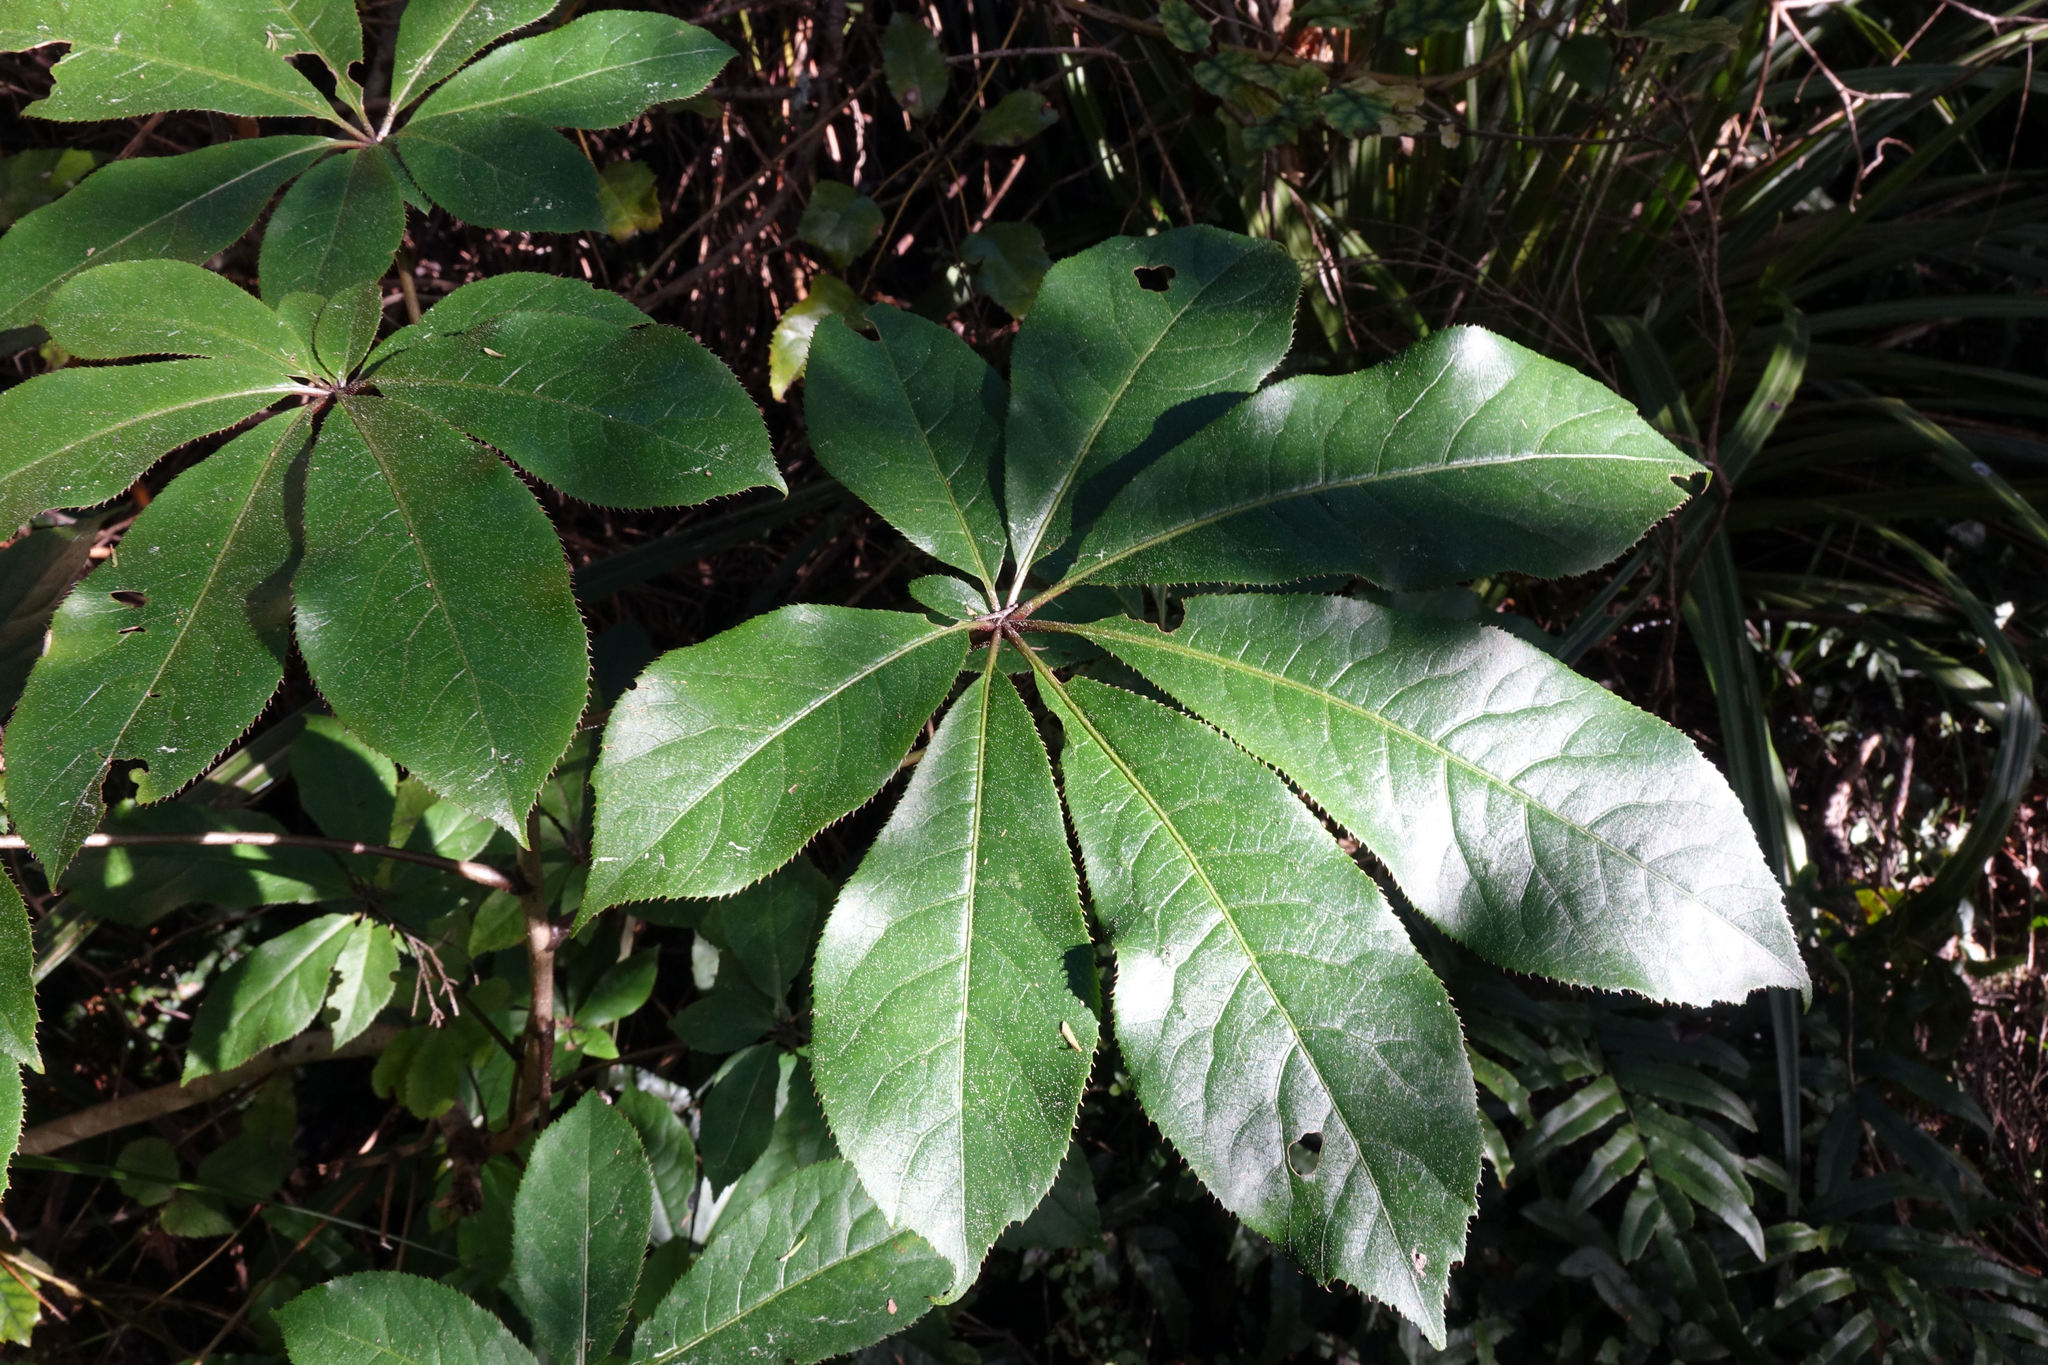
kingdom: Plantae
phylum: Tracheophyta
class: Magnoliopsida
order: Apiales
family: Araliaceae
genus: Schefflera
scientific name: Schefflera digitata
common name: Pate
